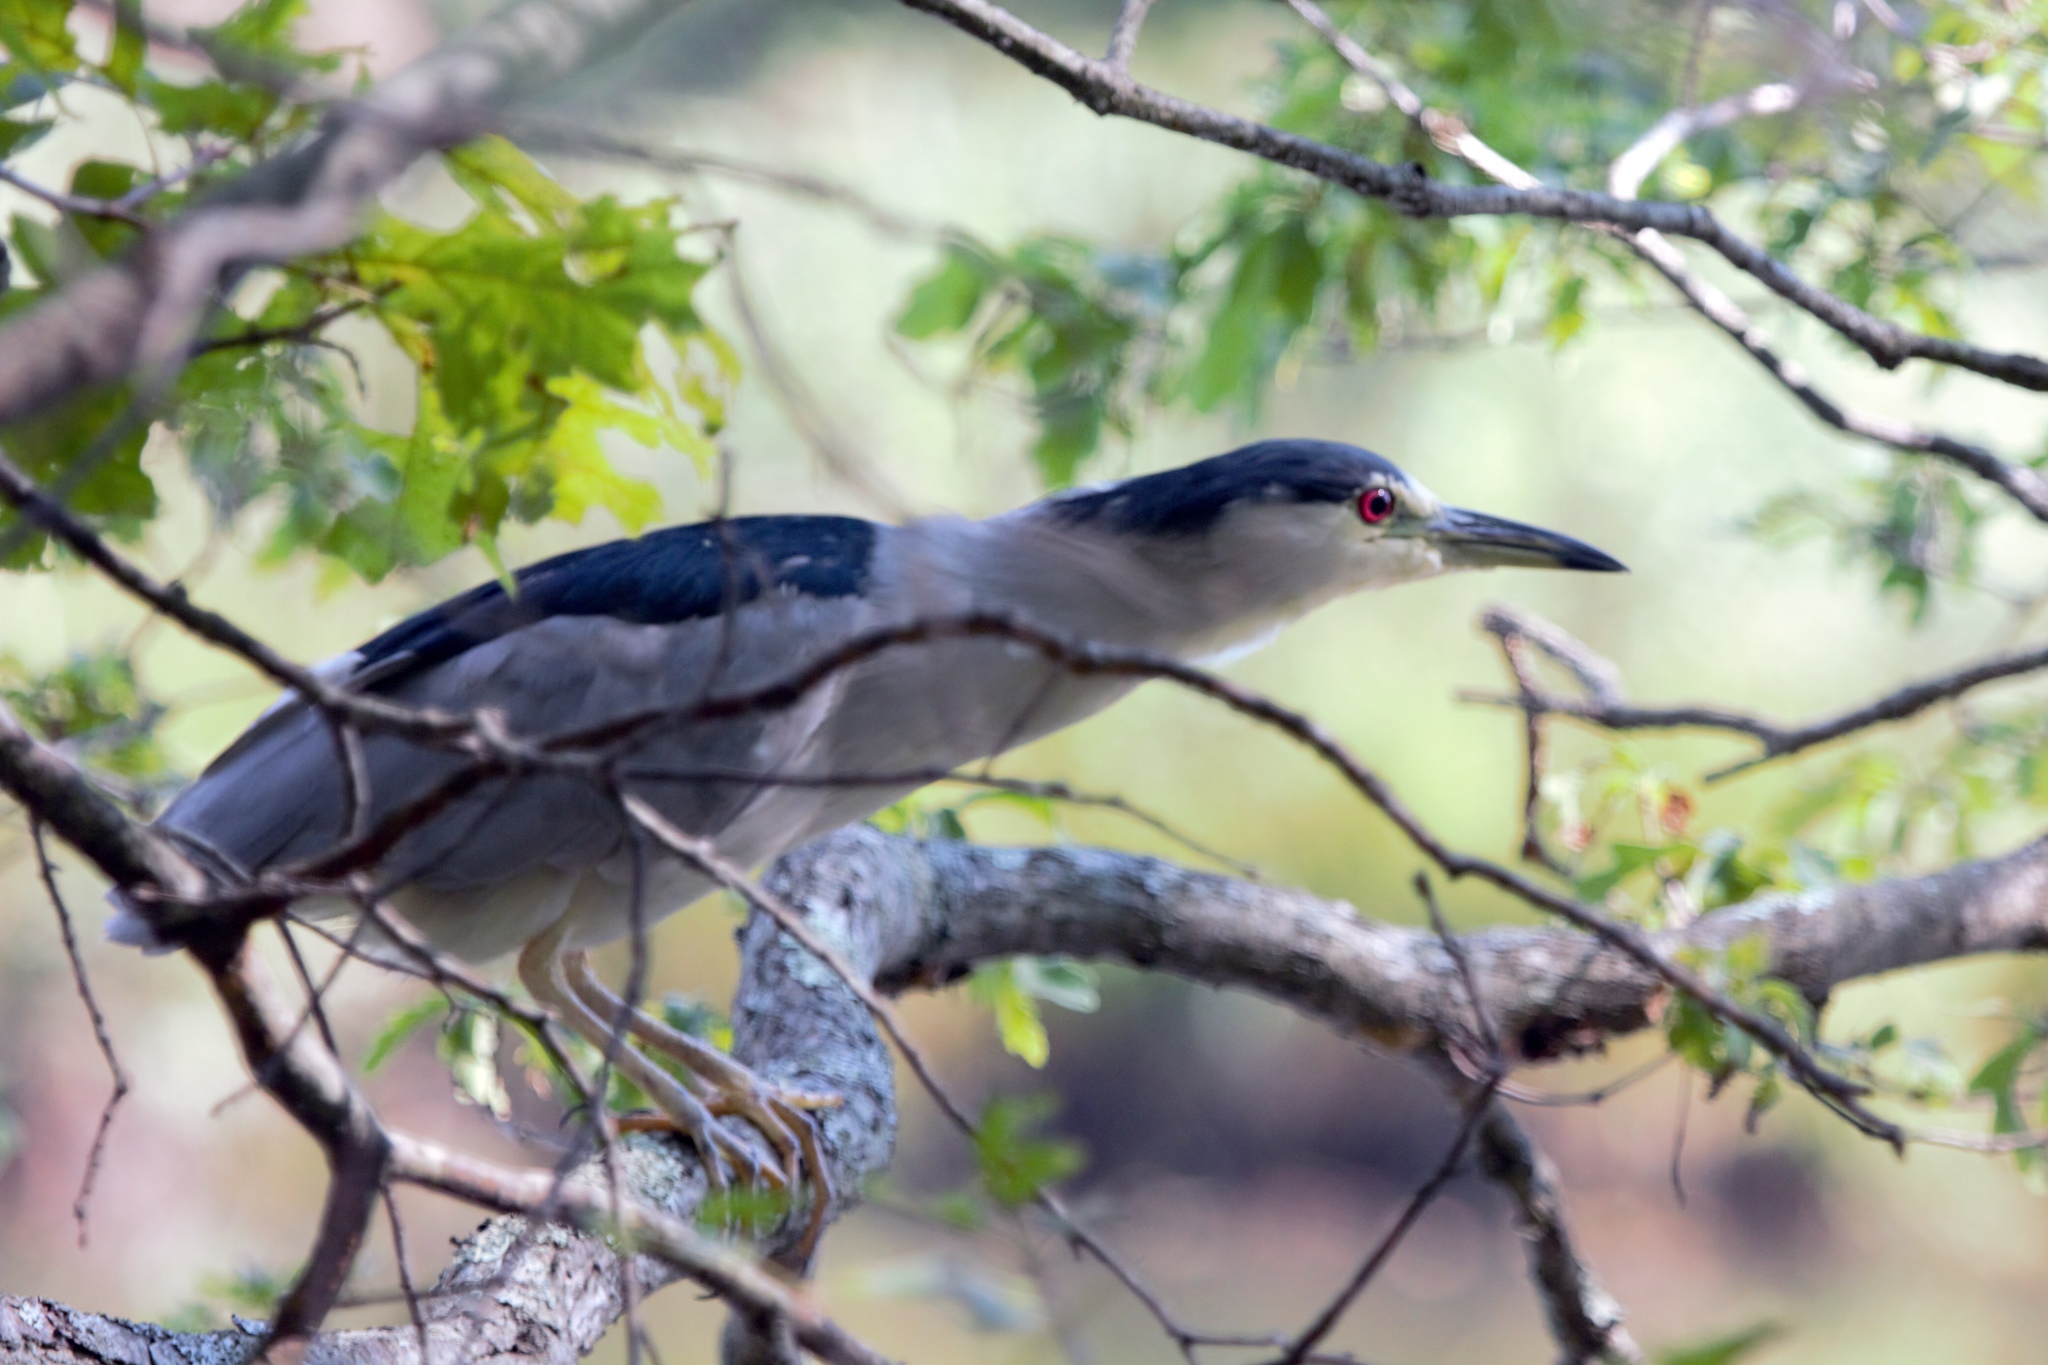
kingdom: Animalia
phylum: Chordata
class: Aves
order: Pelecaniformes
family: Ardeidae
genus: Nycticorax
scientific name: Nycticorax nycticorax
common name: Black-crowned night heron
